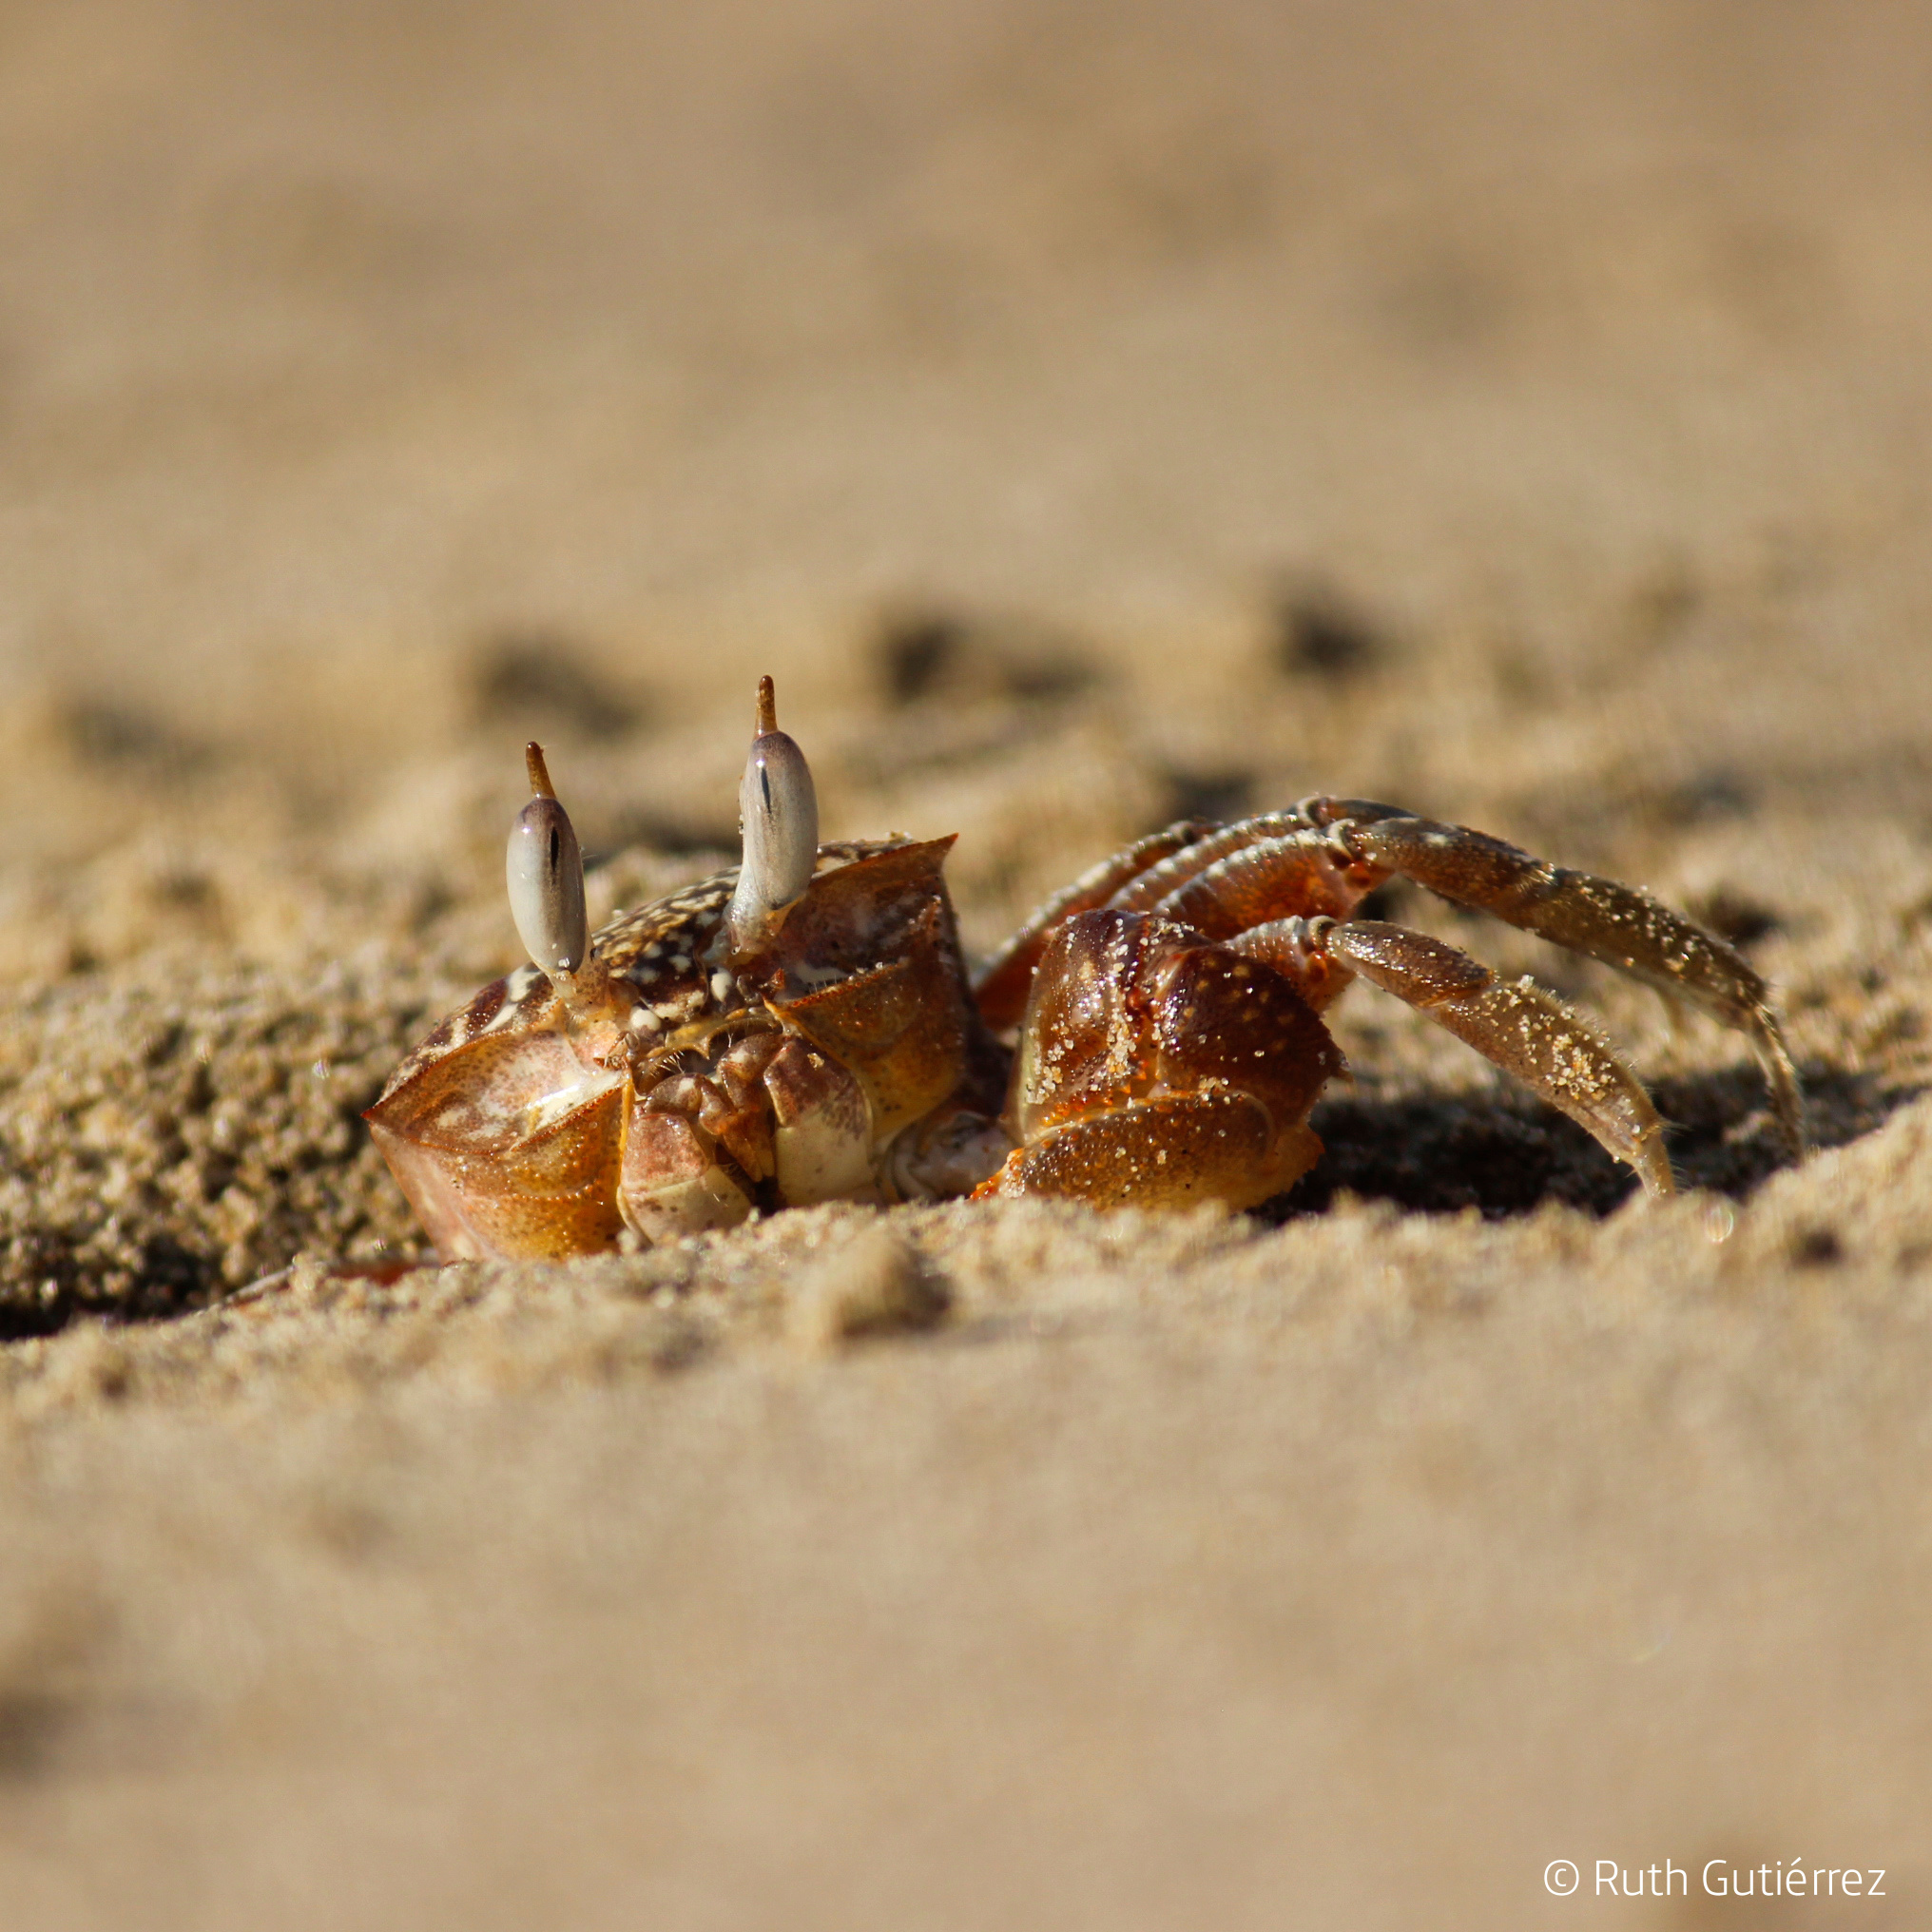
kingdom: Animalia
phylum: Arthropoda
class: Malacostraca
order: Decapoda
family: Ocypodidae
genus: Ocypode
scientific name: Ocypode gaudichaudii
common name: Pacific ghost crab
